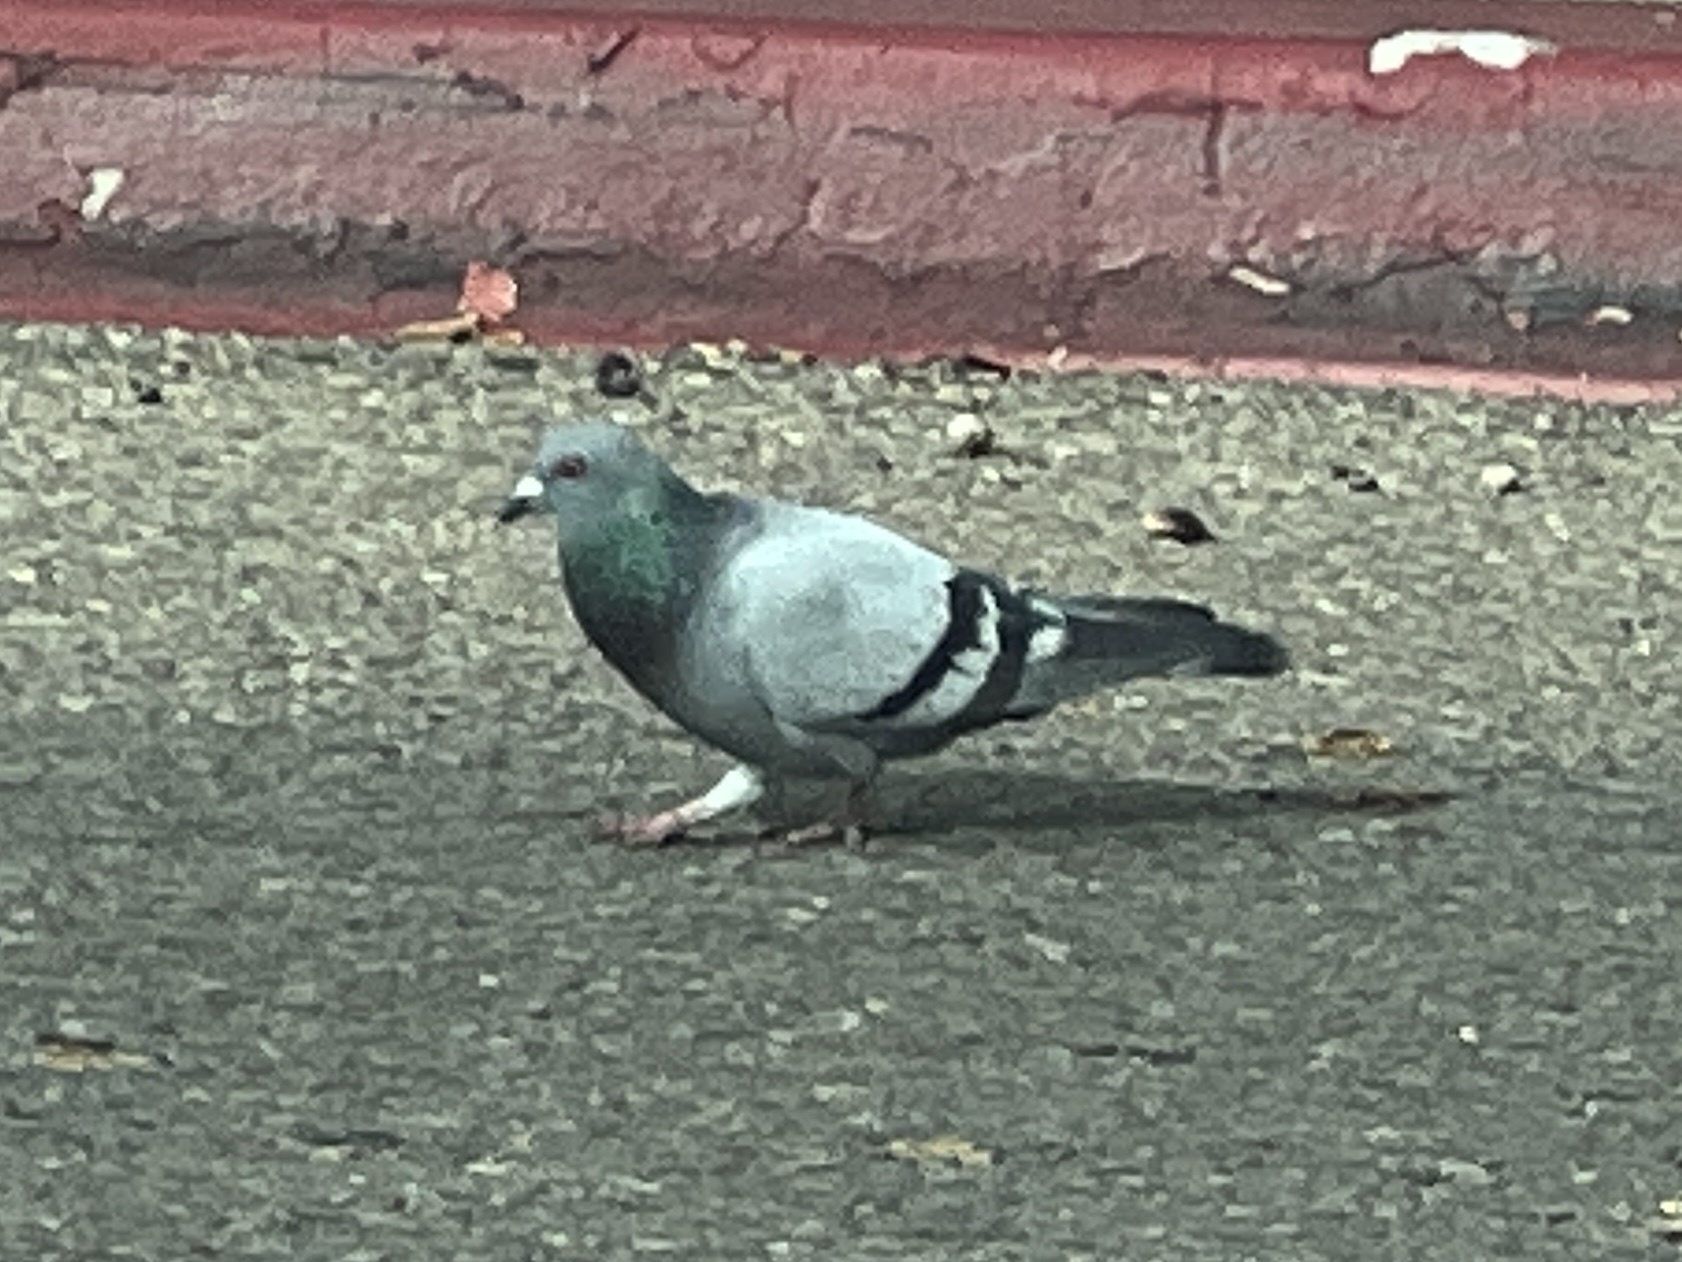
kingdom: Animalia
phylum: Chordata
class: Aves
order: Columbiformes
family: Columbidae
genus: Columba
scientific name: Columba livia
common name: Rock pigeon
